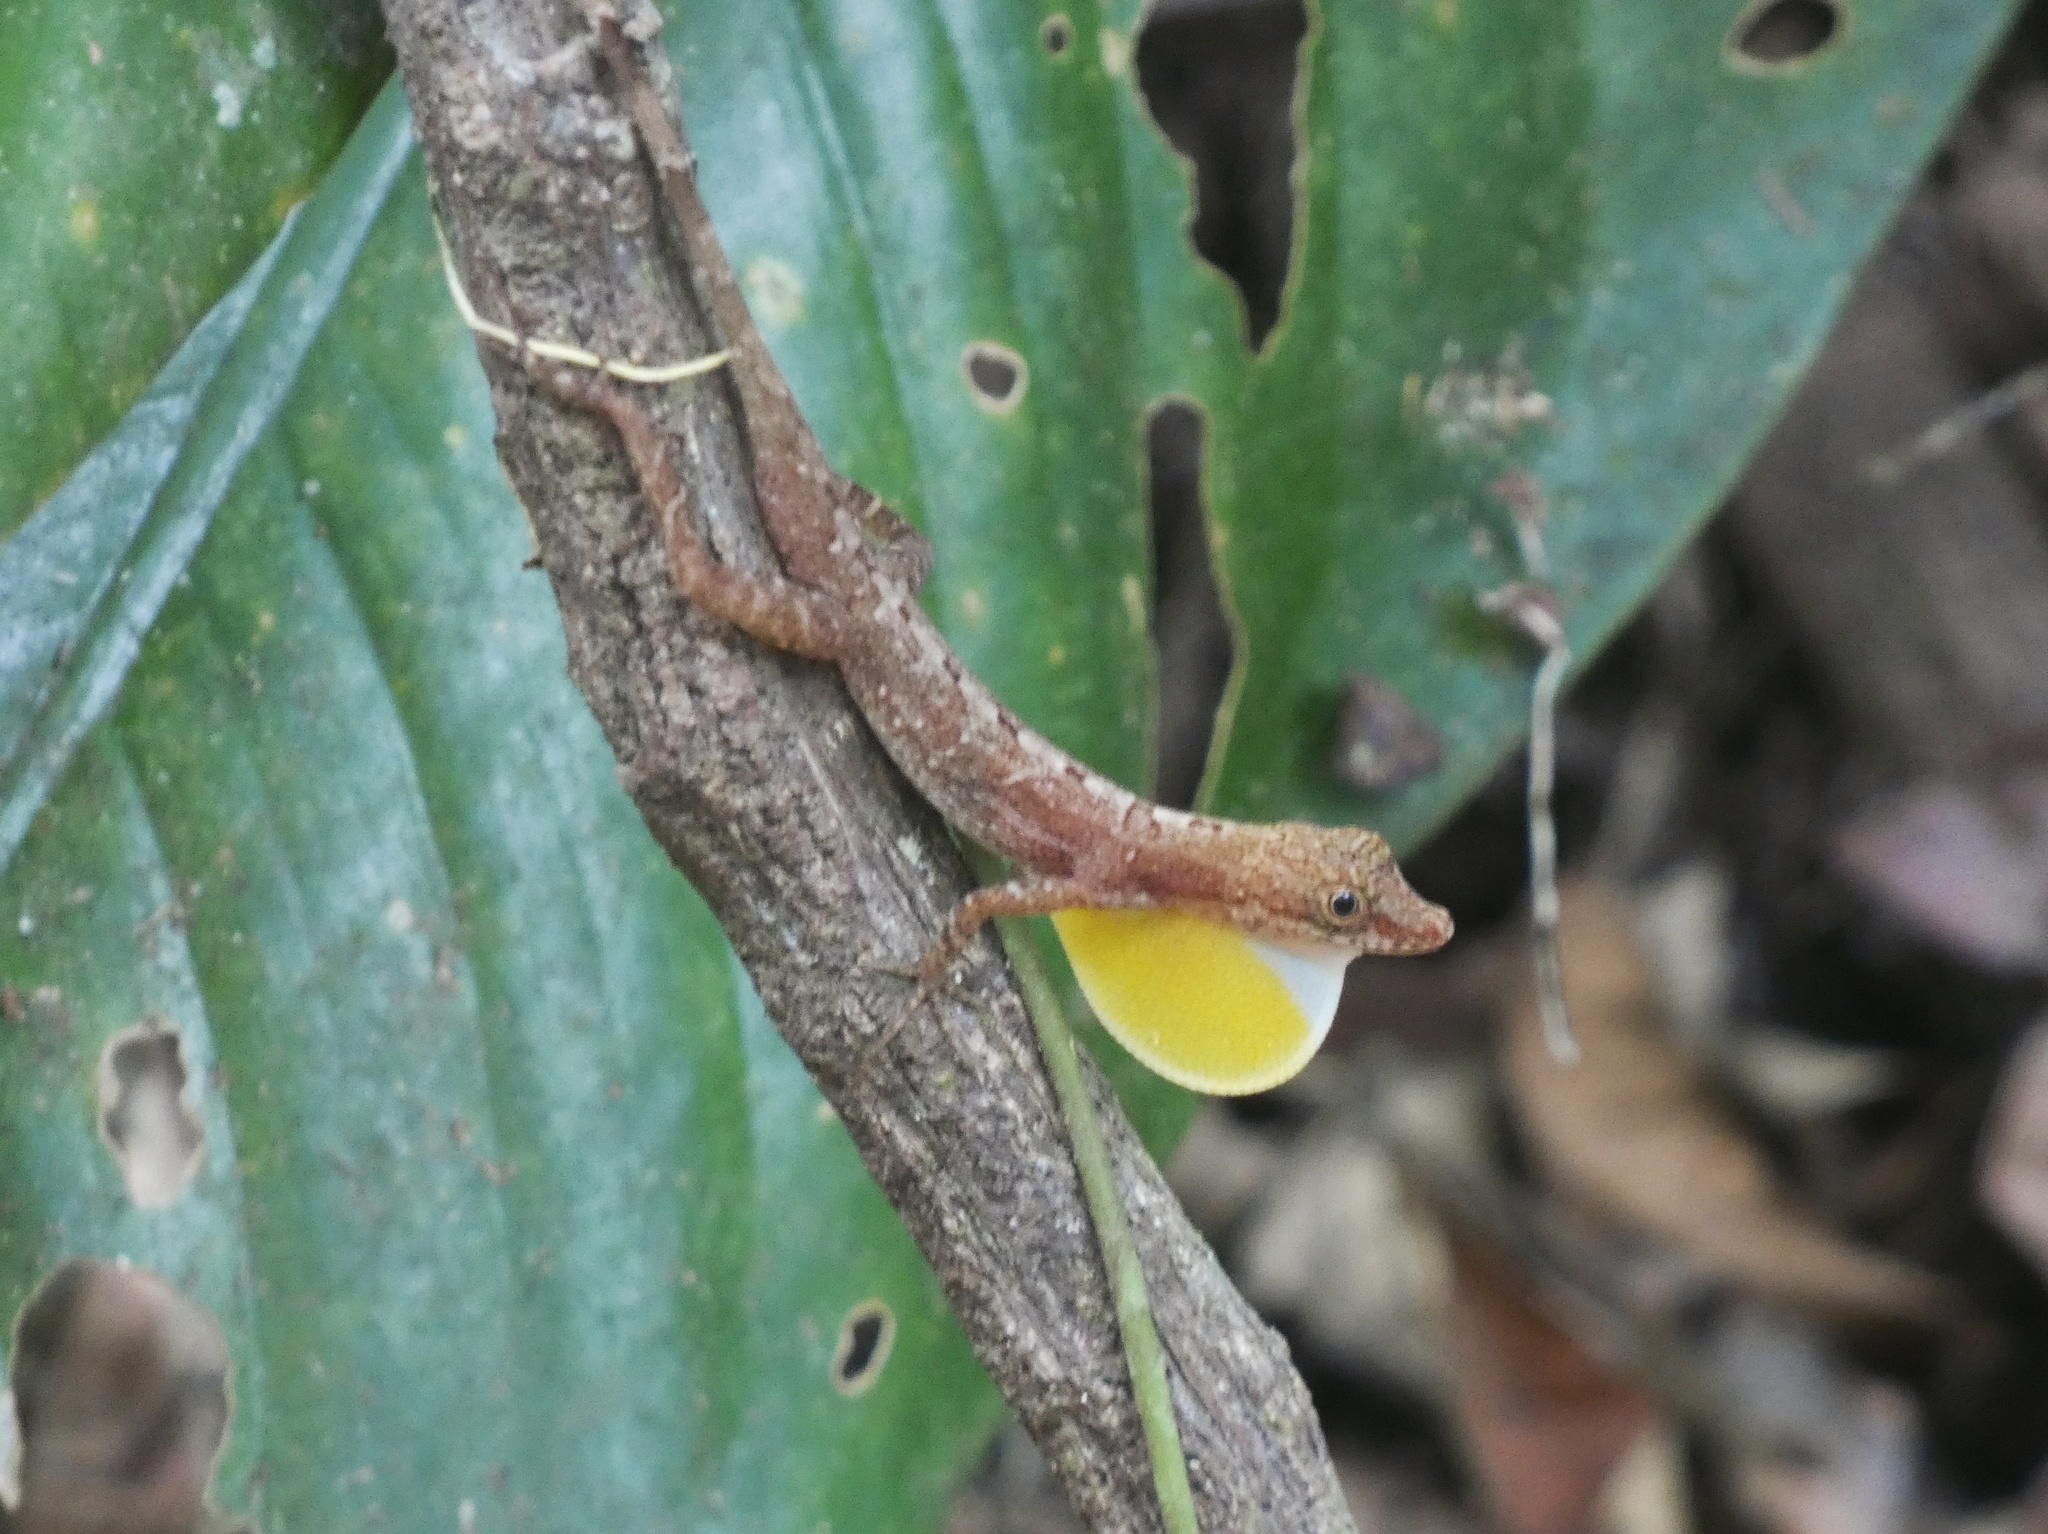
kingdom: Animalia
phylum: Chordata
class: Squamata
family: Dactyloidae
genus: Anolis
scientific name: Anolis apletophallus
